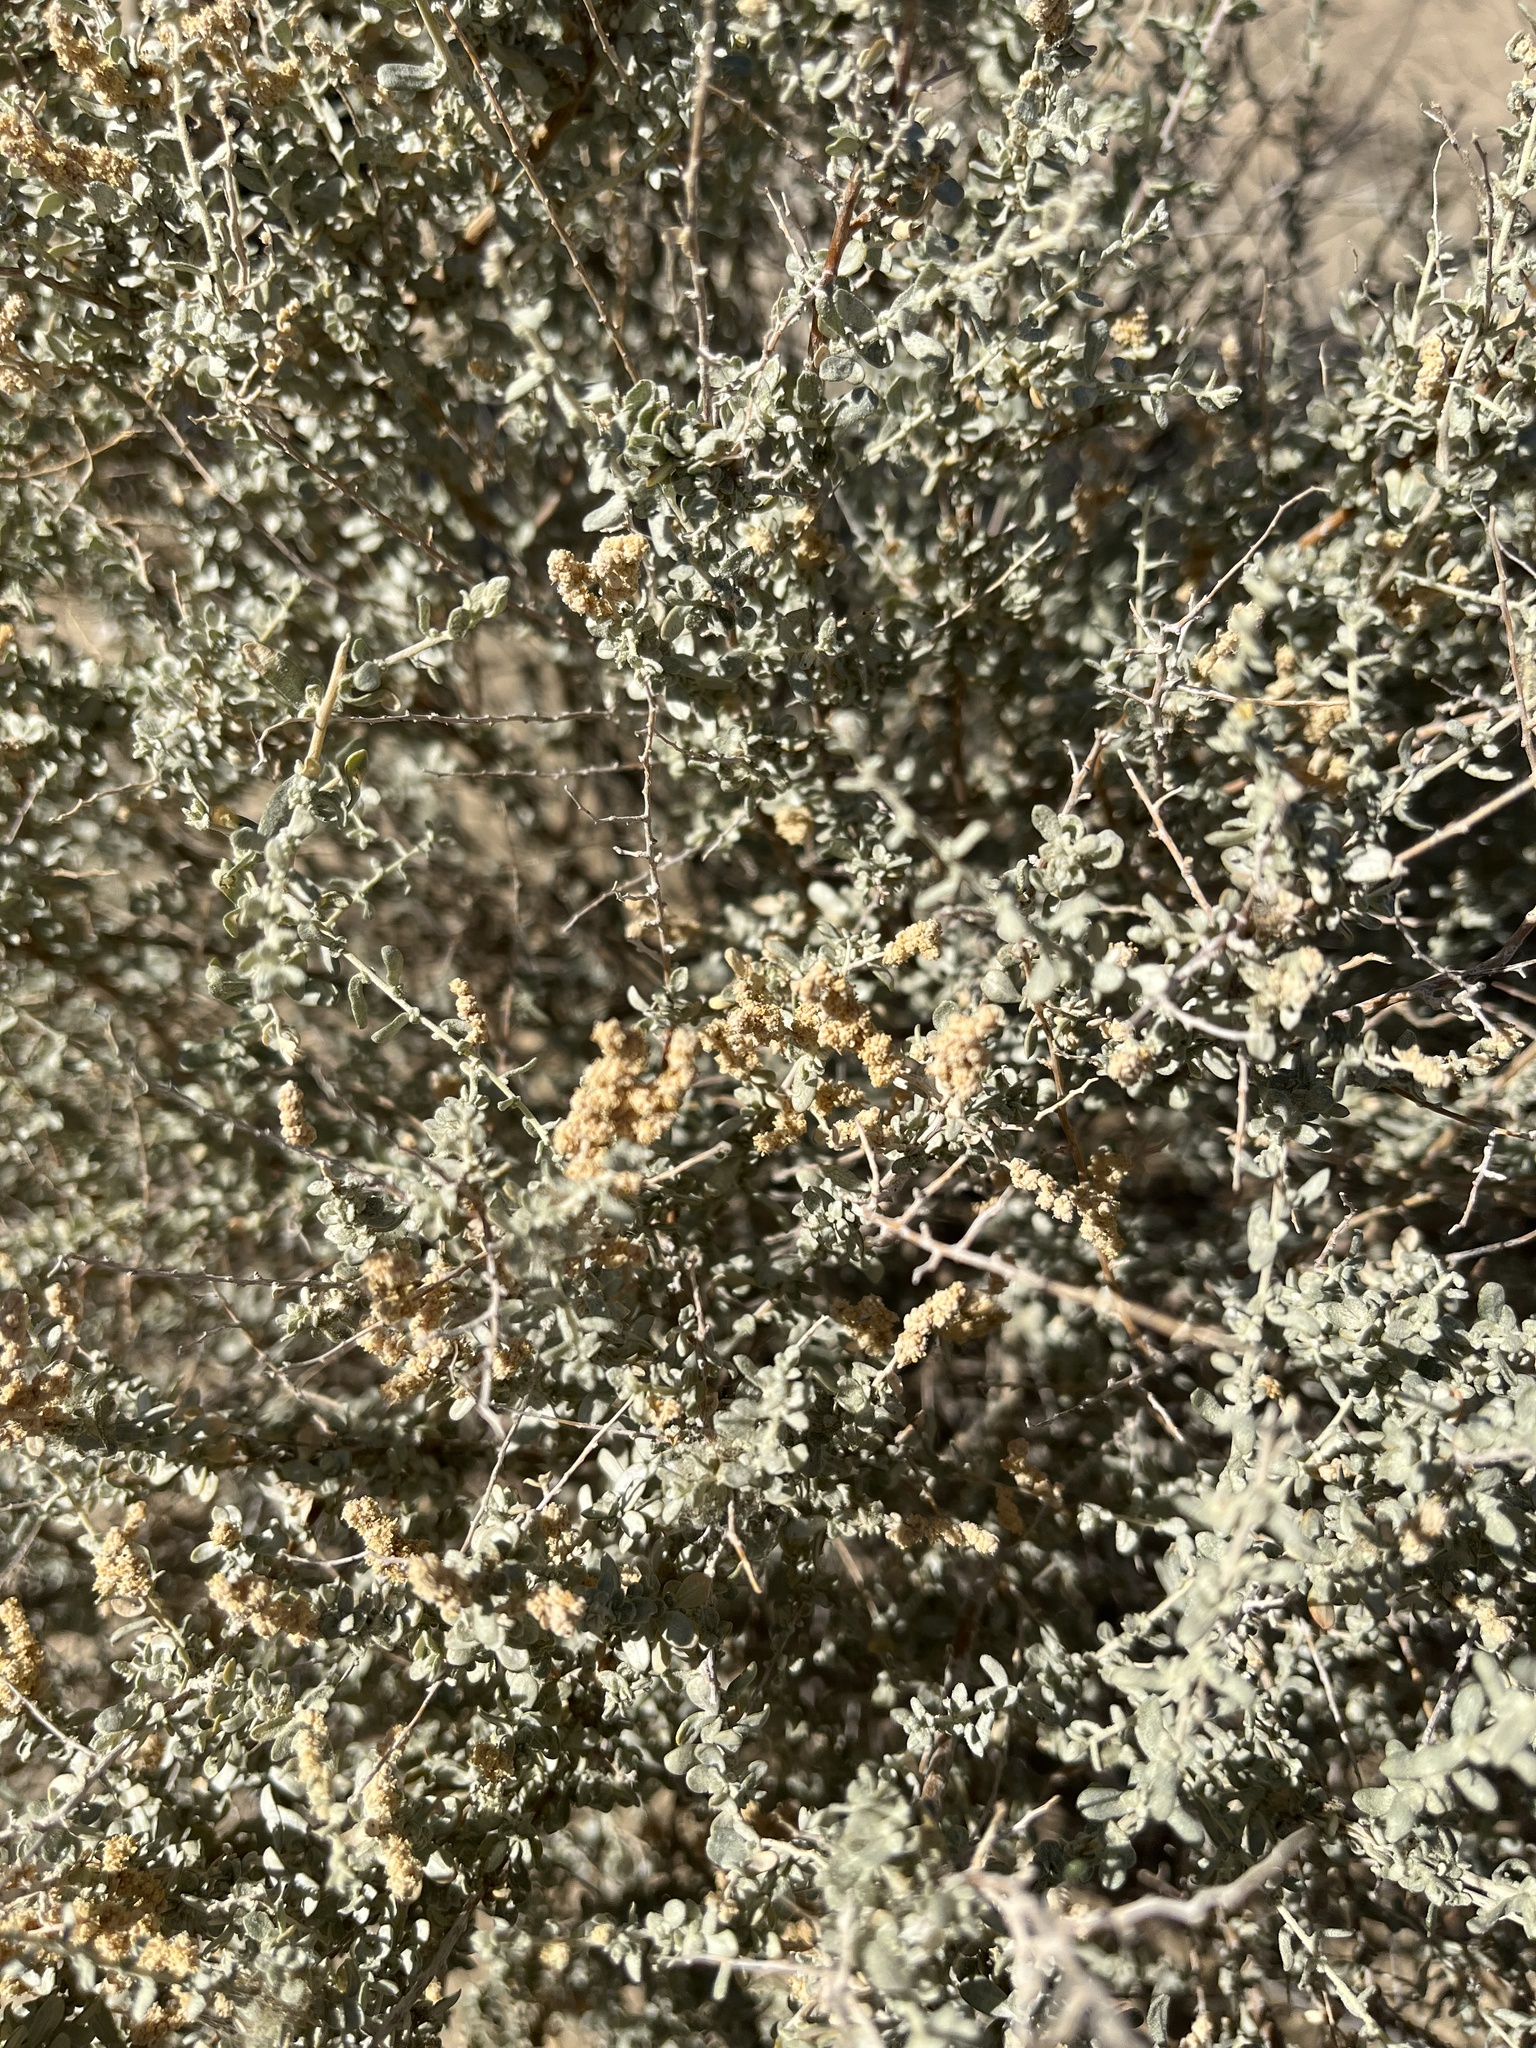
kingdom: Plantae
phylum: Tracheophyta
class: Magnoliopsida
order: Caryophyllales
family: Amaranthaceae
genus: Atriplex
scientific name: Atriplex polycarpa
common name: Desert saltbush
